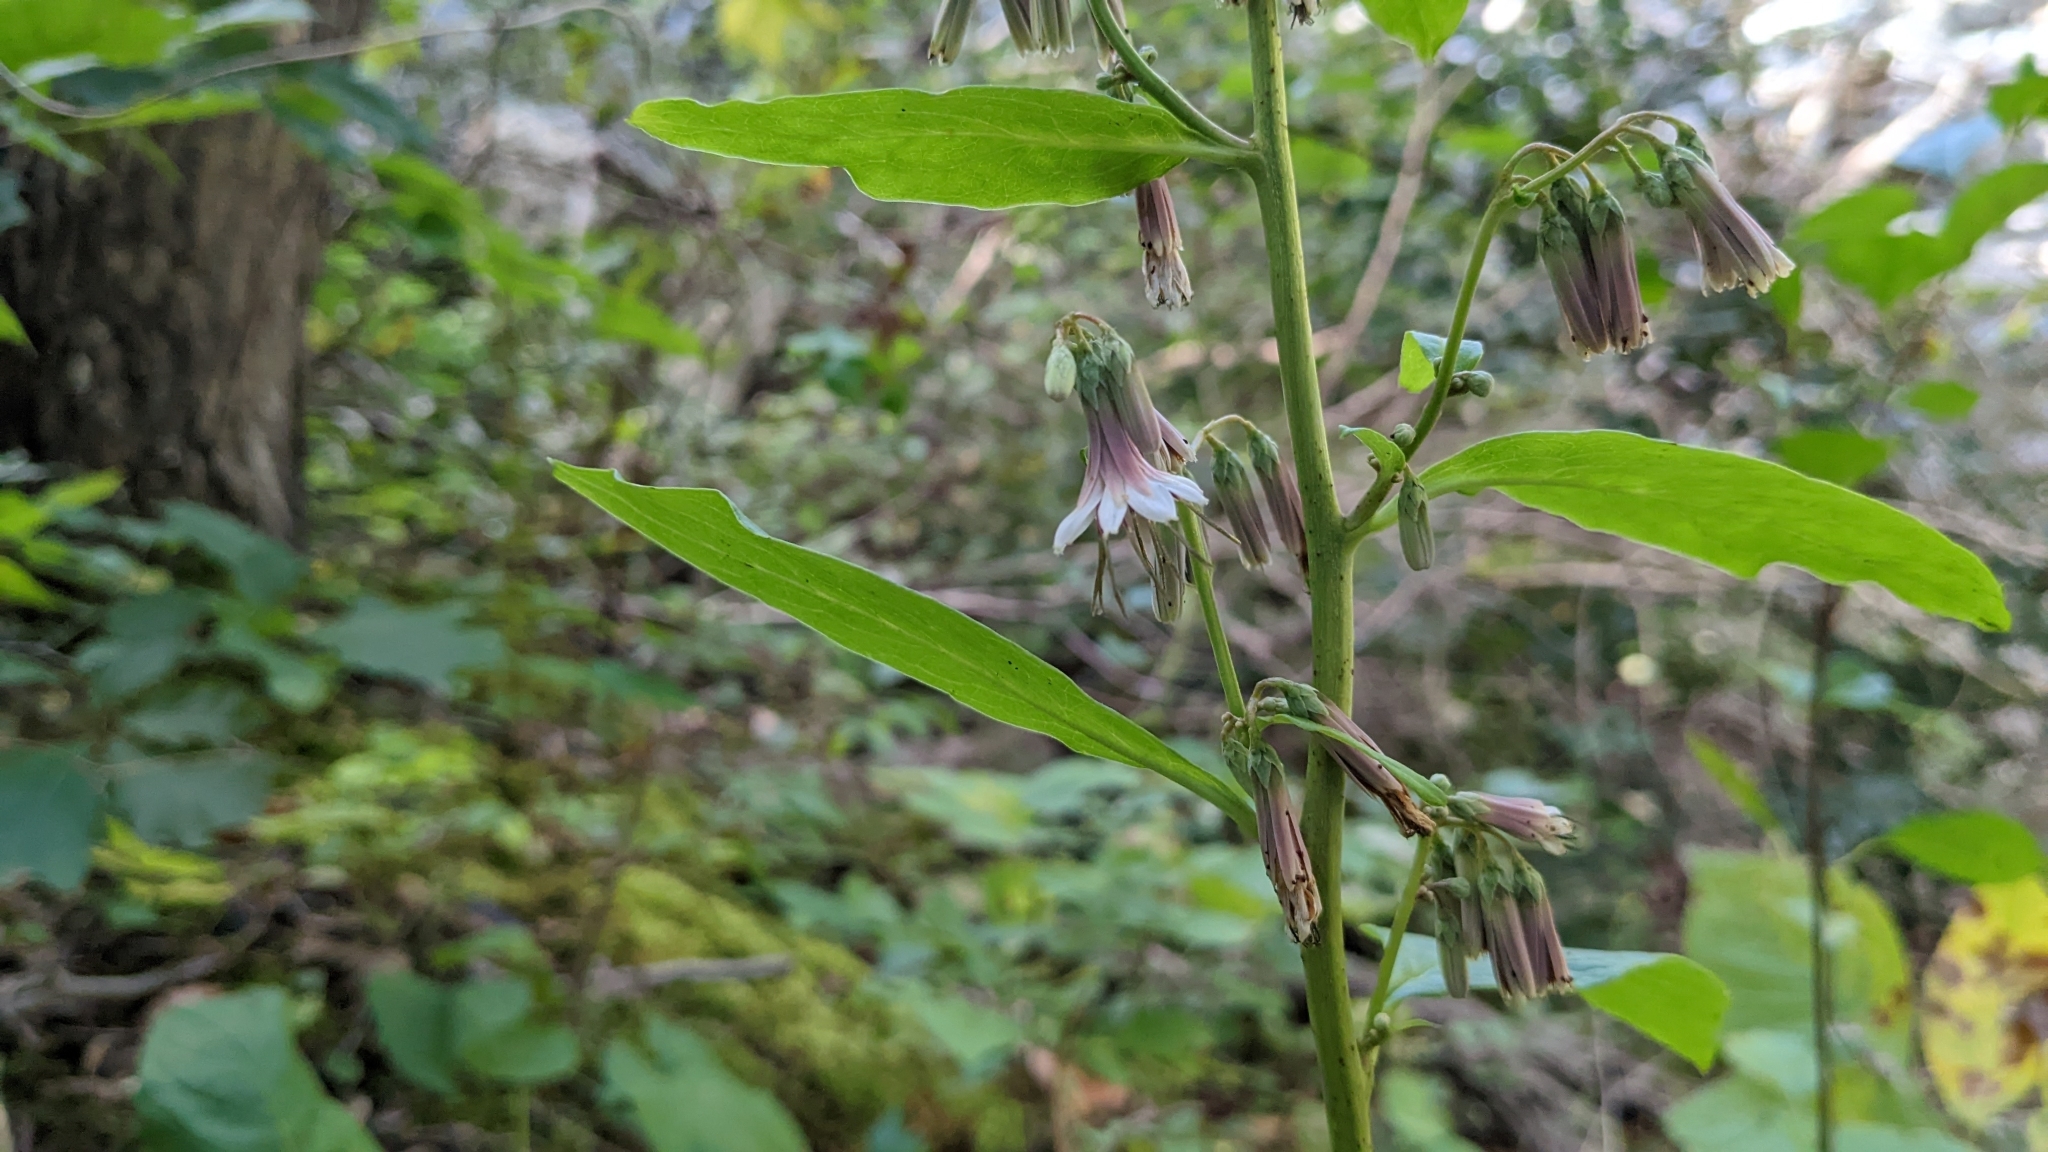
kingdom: Plantae
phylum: Tracheophyta
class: Magnoliopsida
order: Asterales
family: Asteraceae
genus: Nabalus
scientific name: Nabalus albus
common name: White rattlesnakeroot
